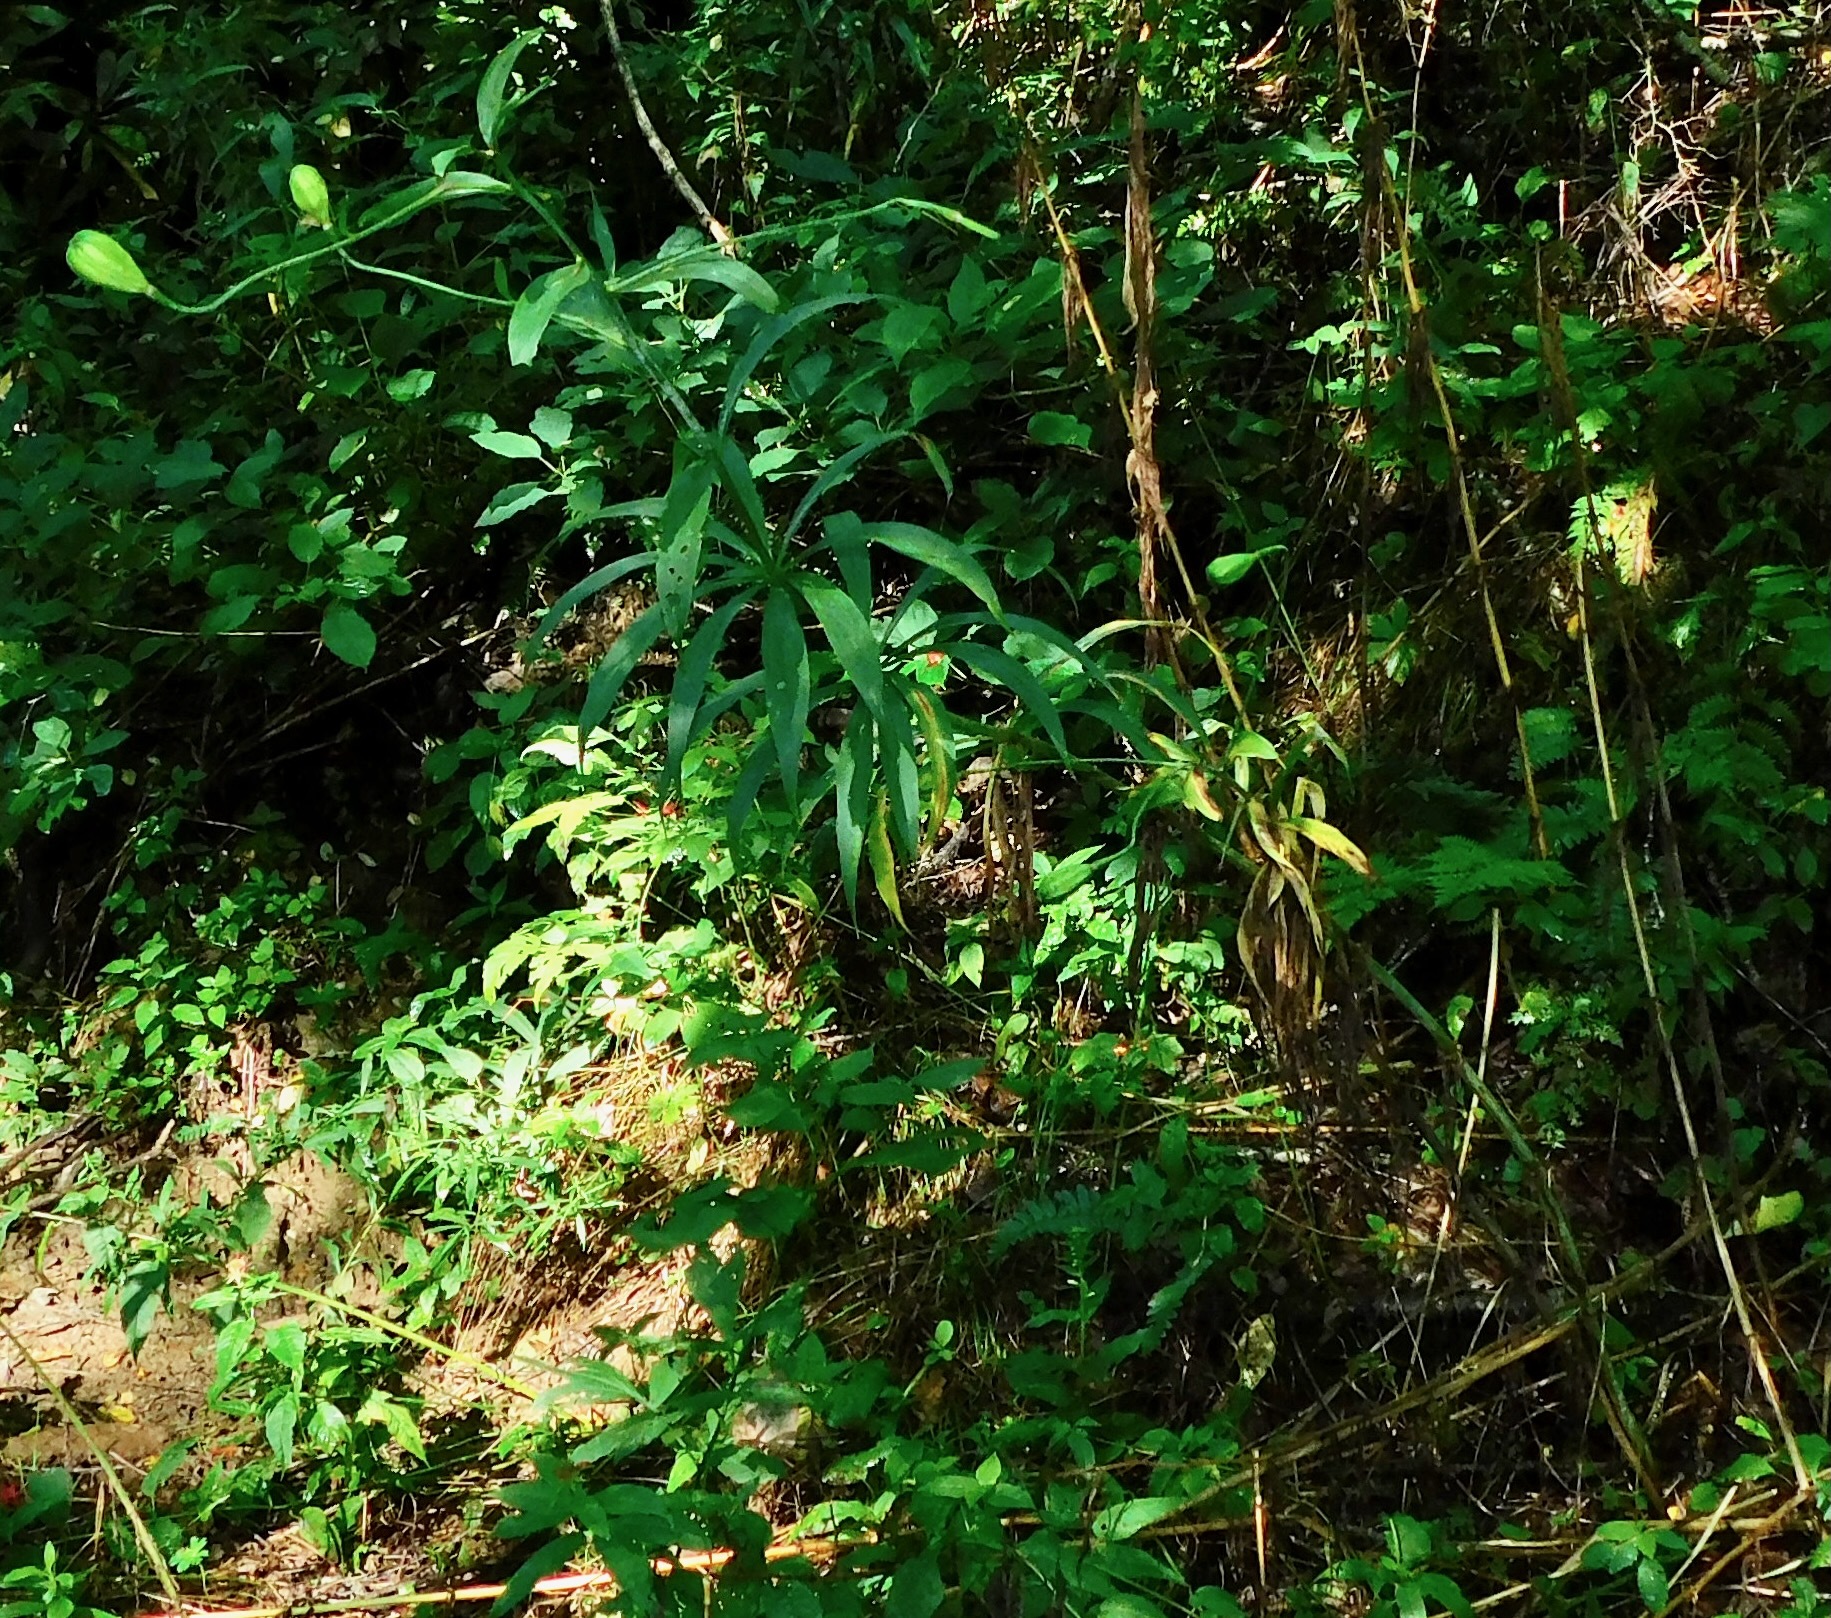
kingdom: Plantae
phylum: Tracheophyta
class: Liliopsida
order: Liliales
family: Liliaceae
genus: Lilium
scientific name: Lilium superbum
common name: American turk's-cap lily
